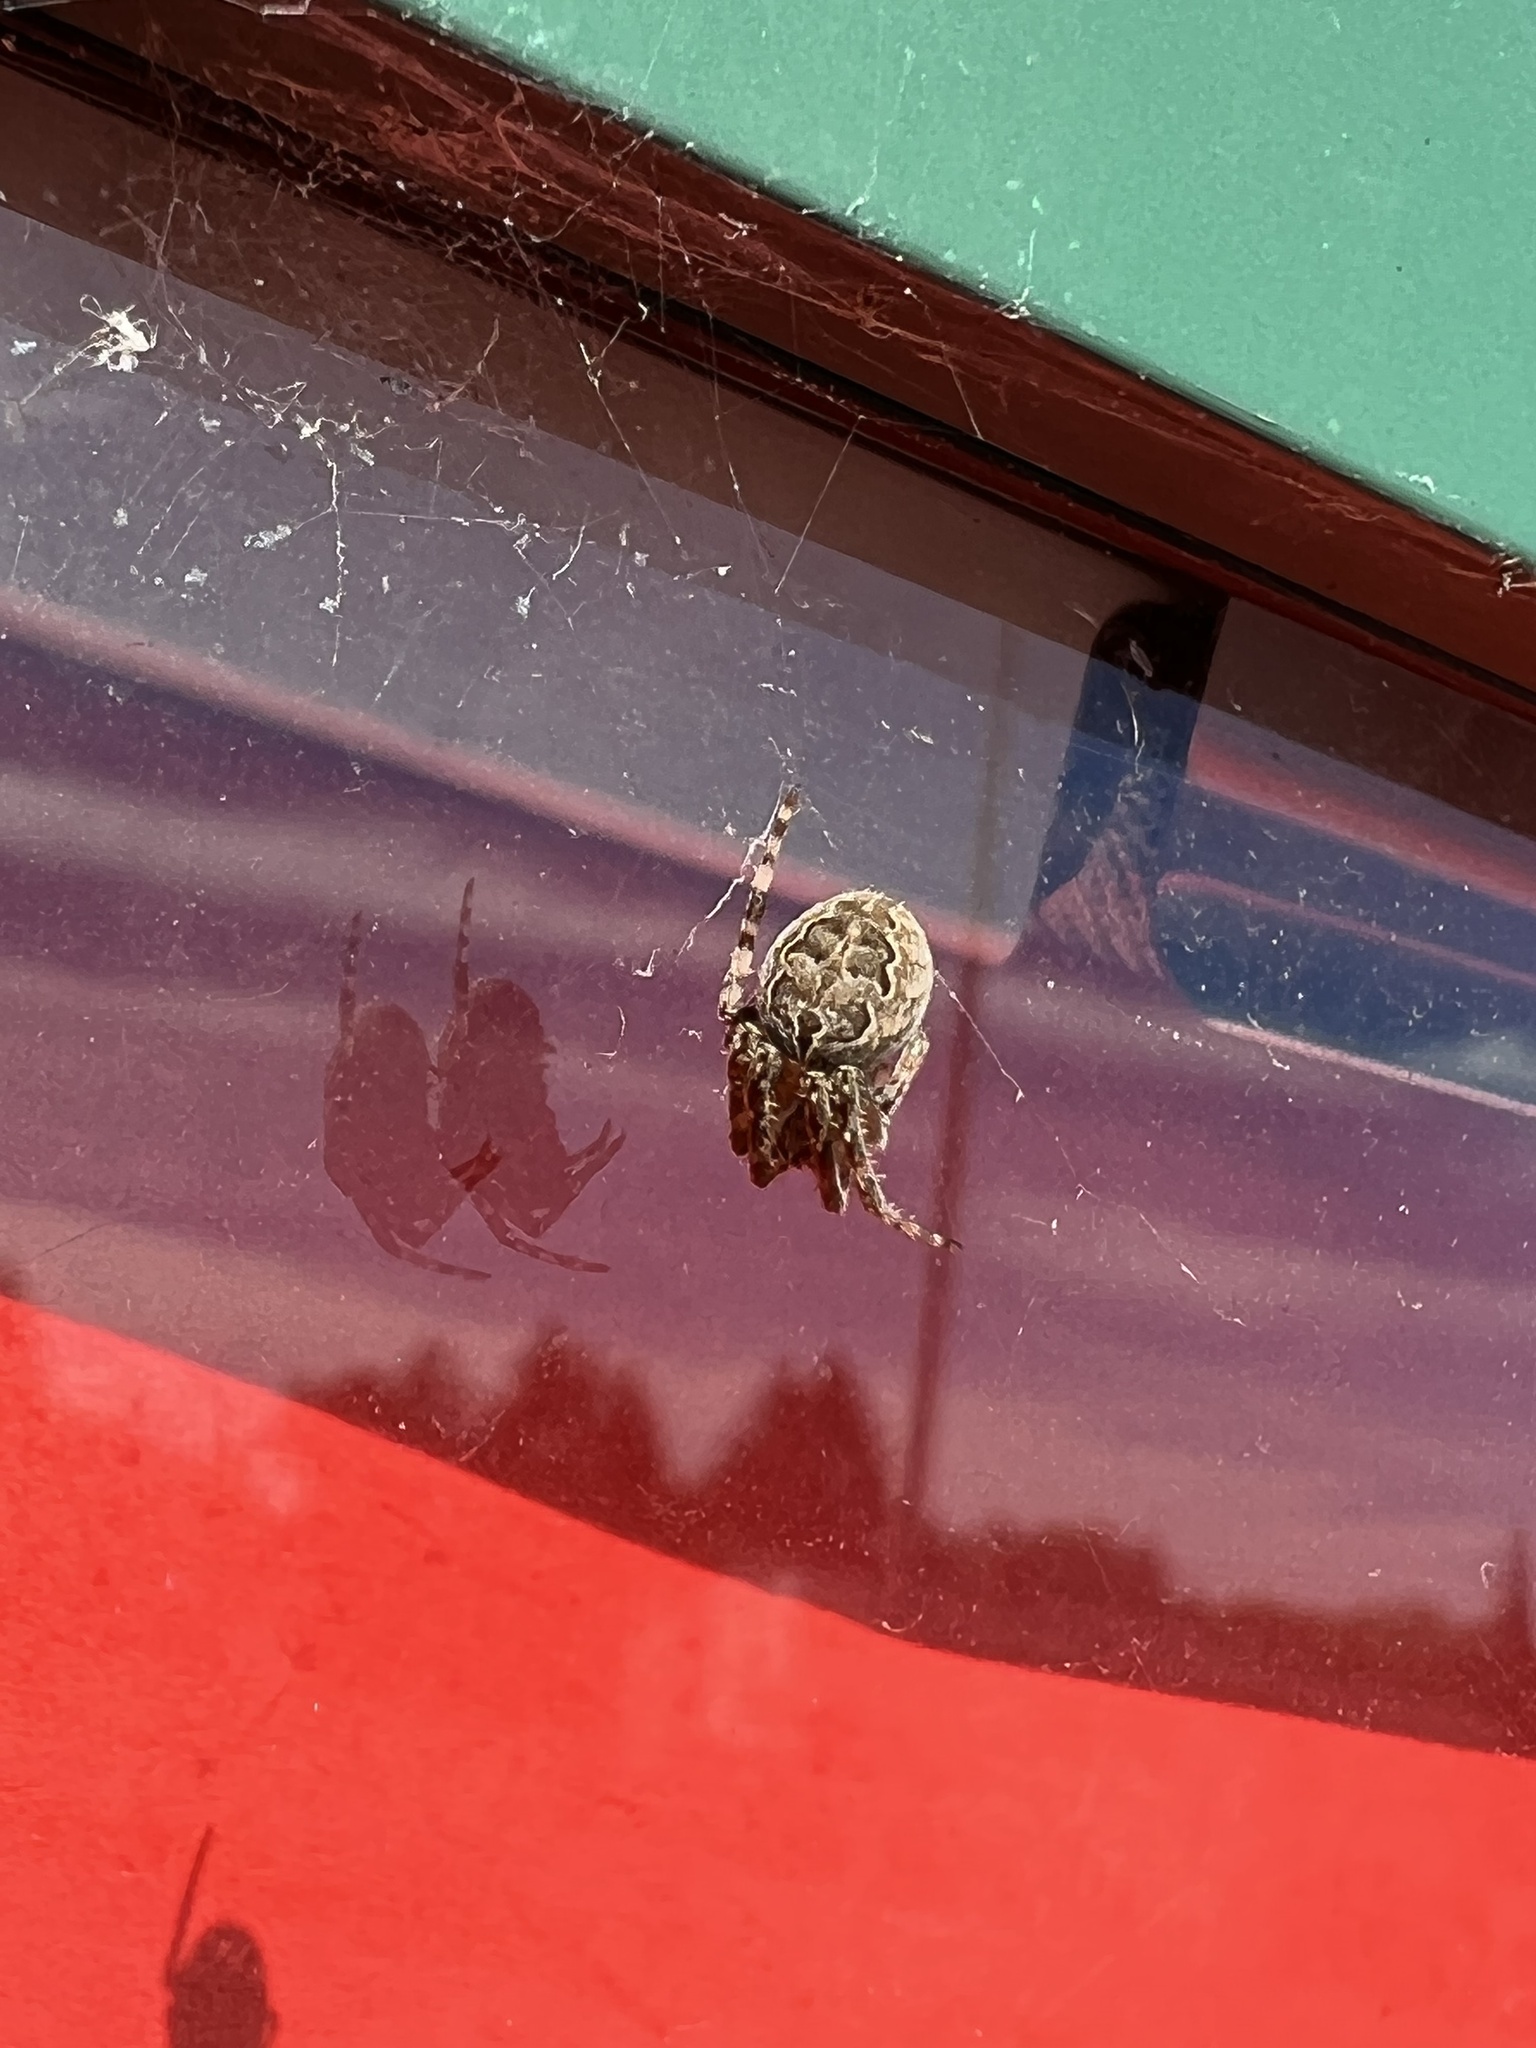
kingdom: Animalia
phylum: Arthropoda
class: Arachnida
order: Araneae
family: Araneidae
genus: Larinioides
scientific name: Larinioides sclopetarius
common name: Bridge orbweaver
